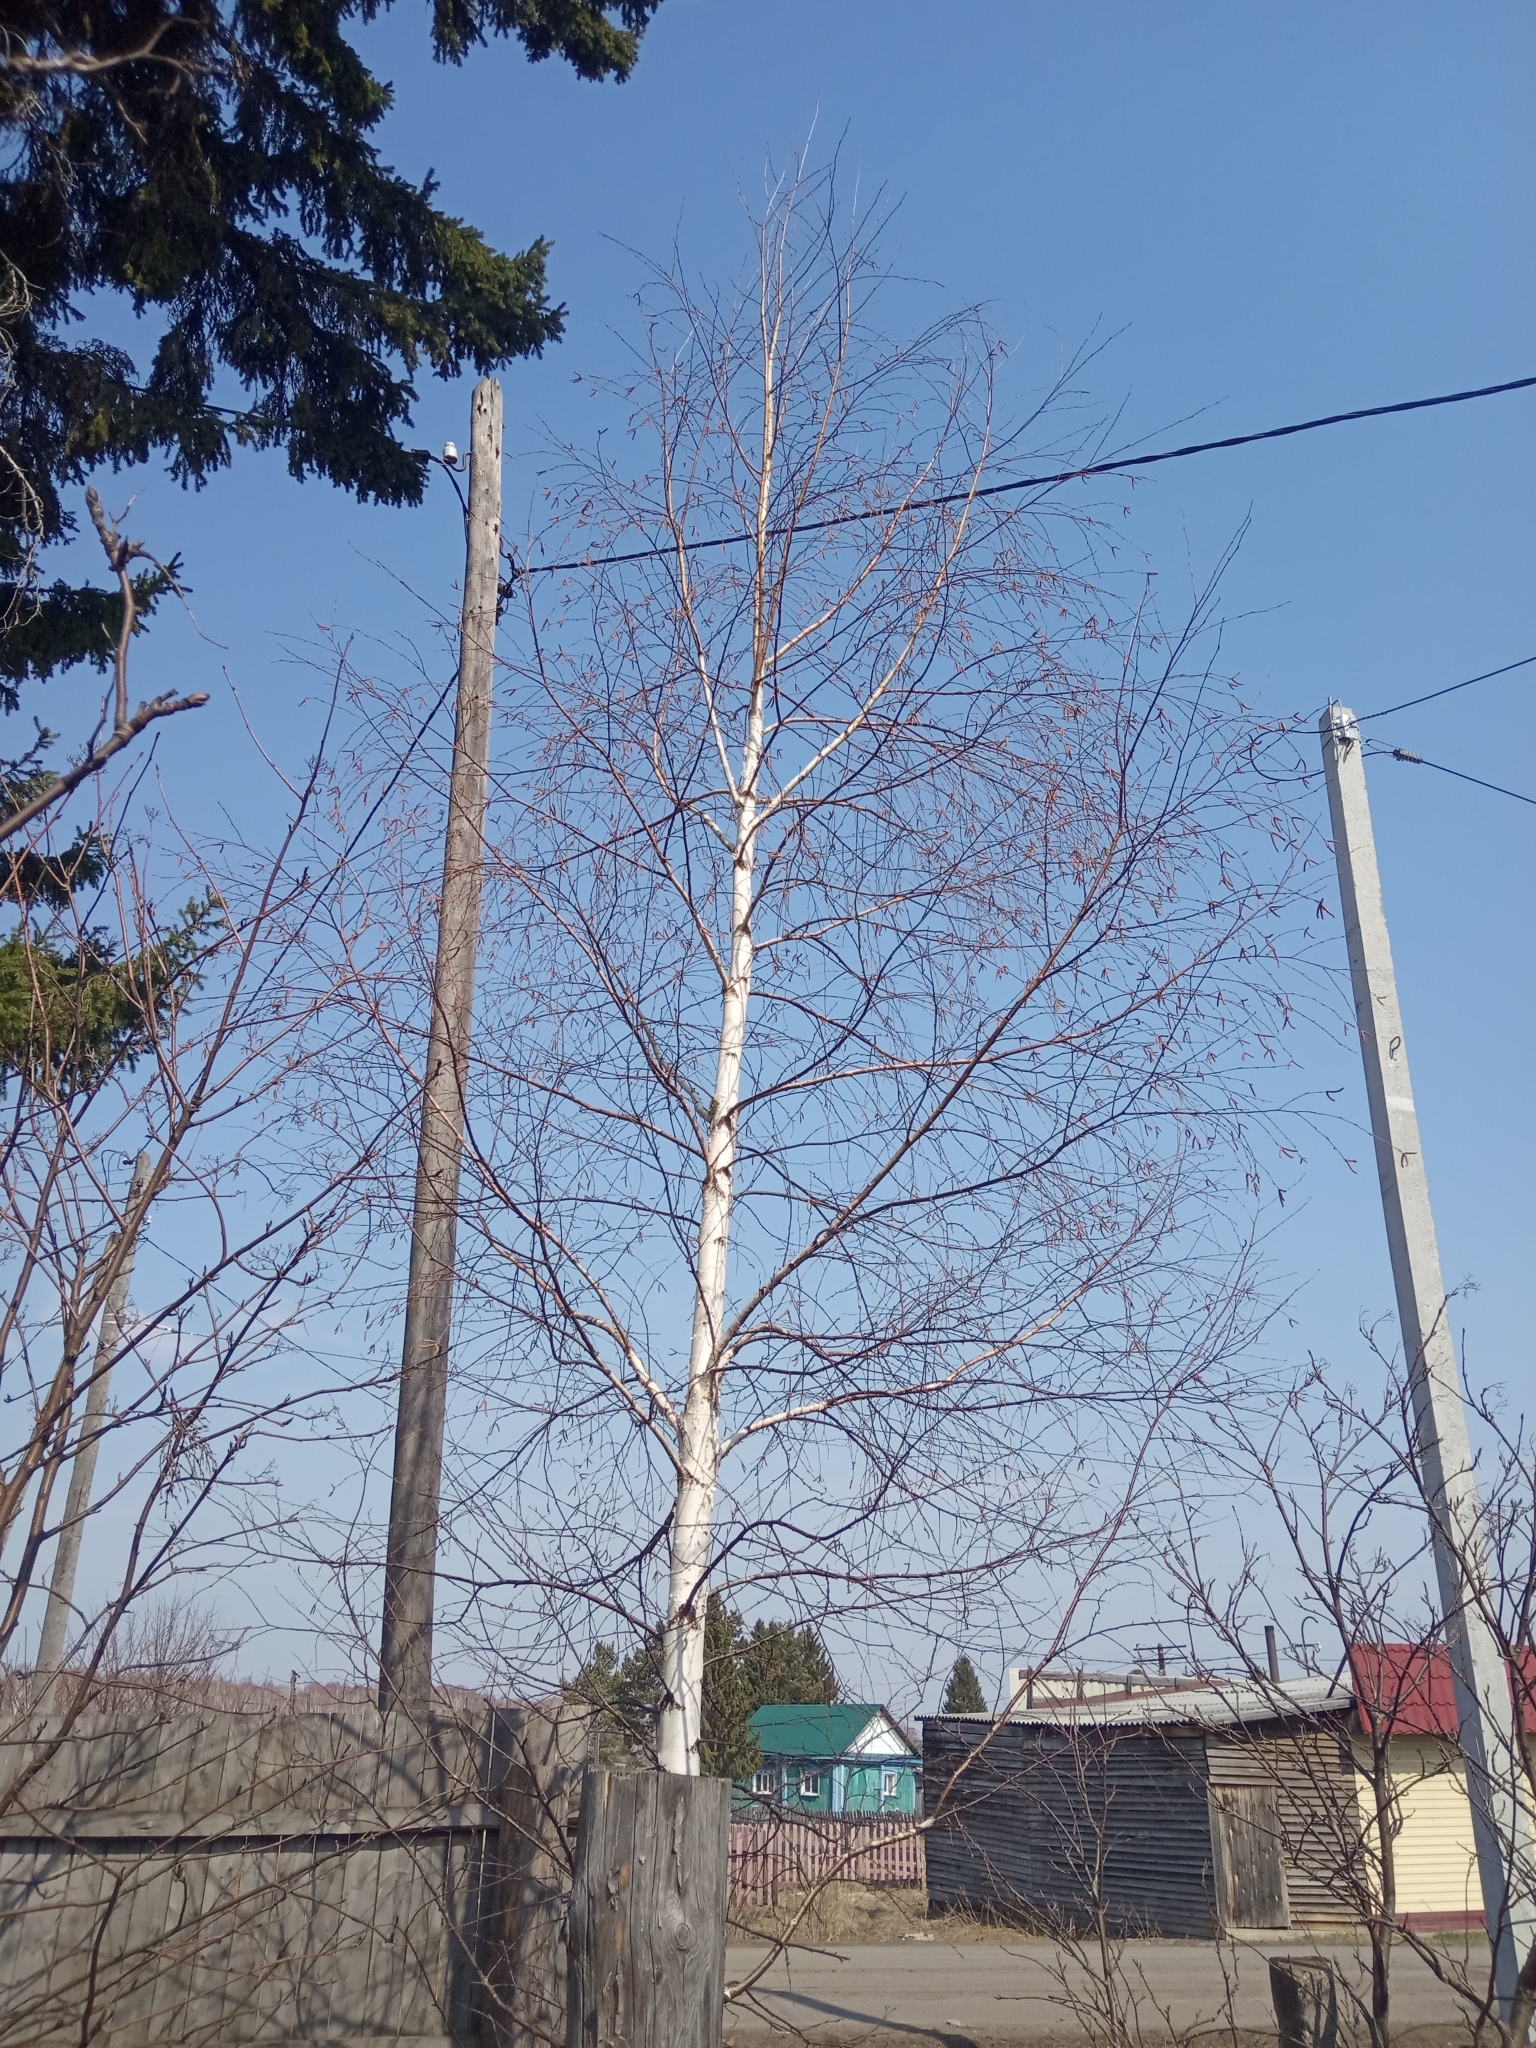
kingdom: Plantae
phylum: Tracheophyta
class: Magnoliopsida
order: Fagales
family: Betulaceae
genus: Betula
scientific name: Betula pendula
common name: Silver birch
